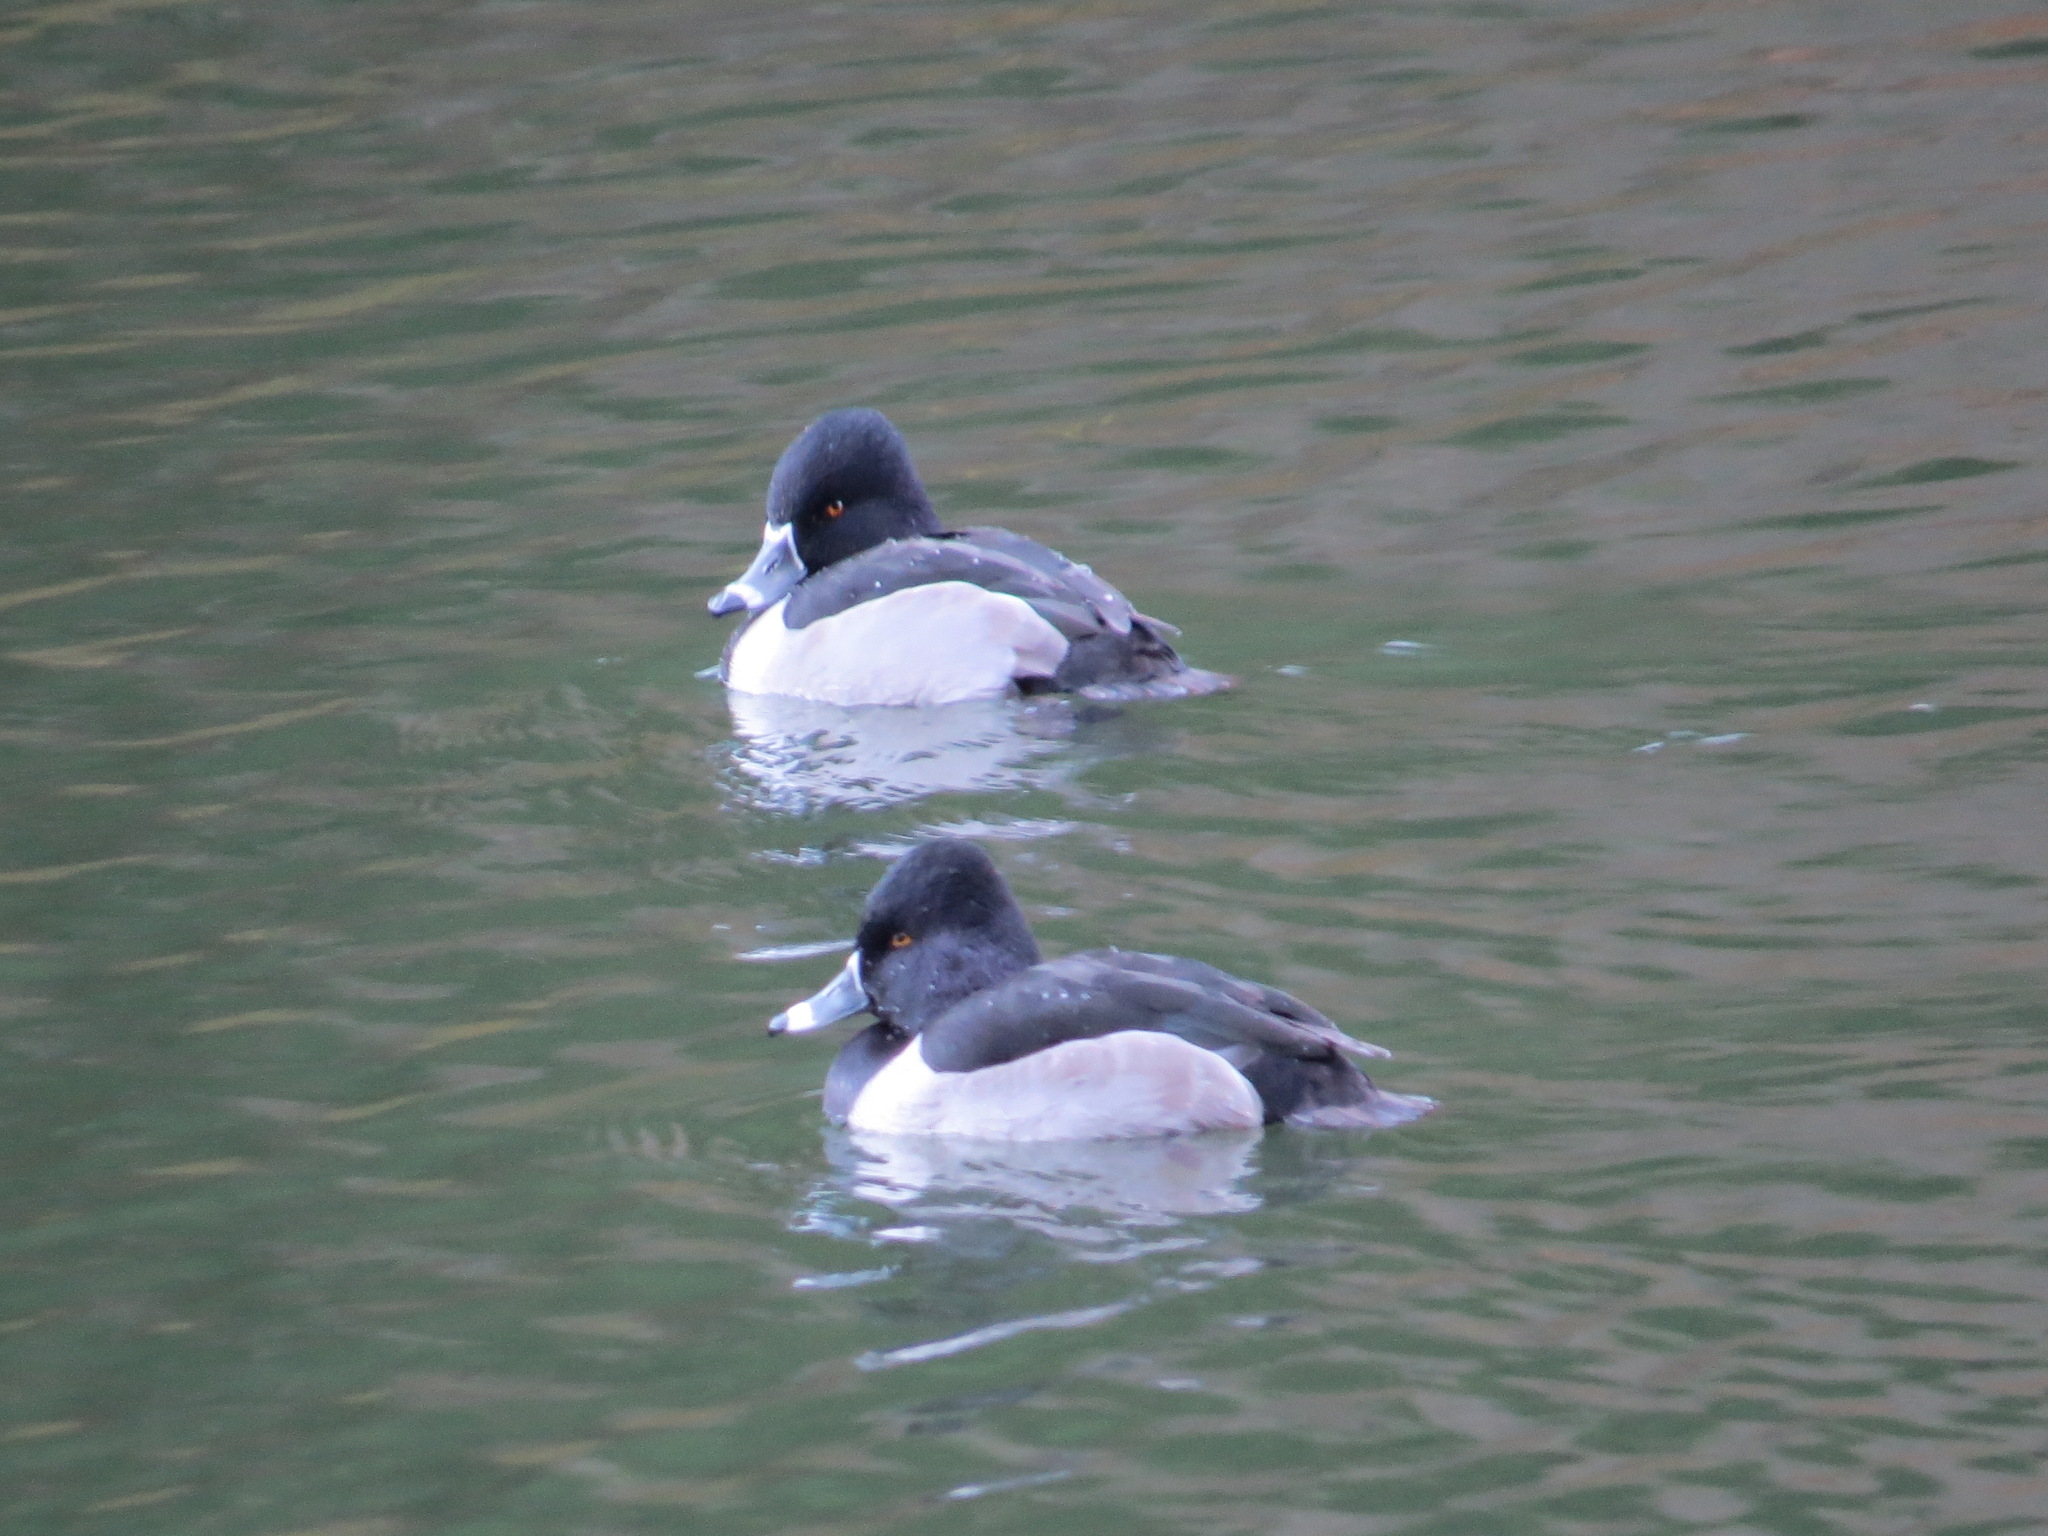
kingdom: Animalia
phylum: Chordata
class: Aves
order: Anseriformes
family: Anatidae
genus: Aythya
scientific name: Aythya collaris
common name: Ring-necked duck
